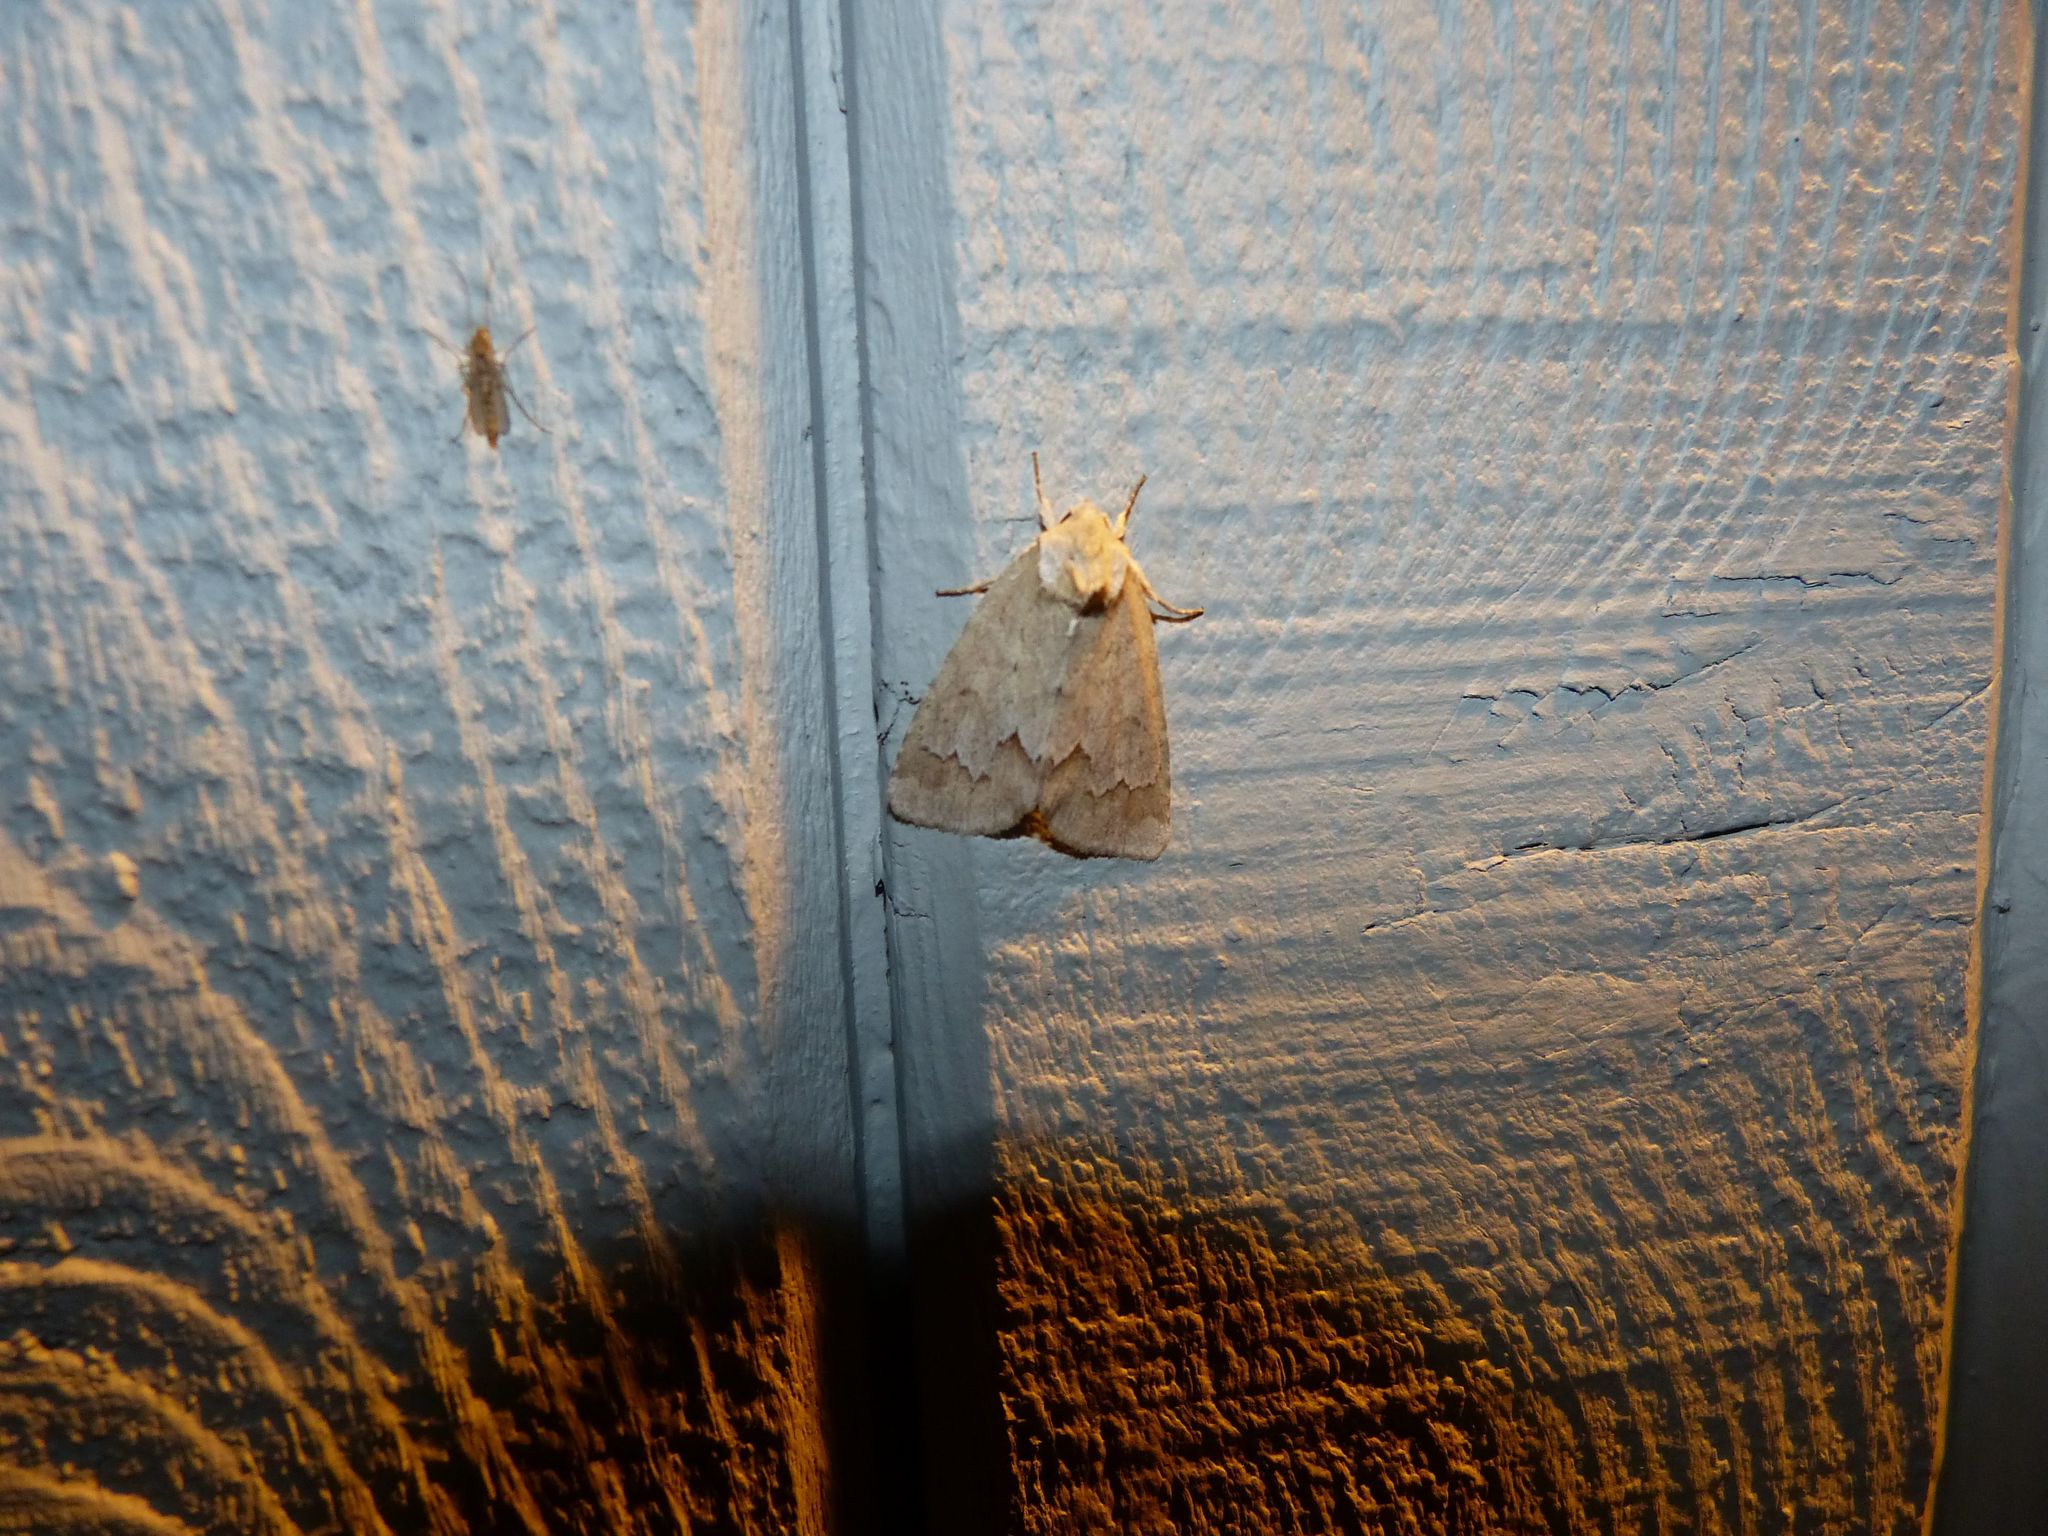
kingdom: Animalia
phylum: Arthropoda
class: Insecta
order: Lepidoptera
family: Noctuidae
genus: Acronicta
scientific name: Acronicta betulae
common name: Birch dagger moth
